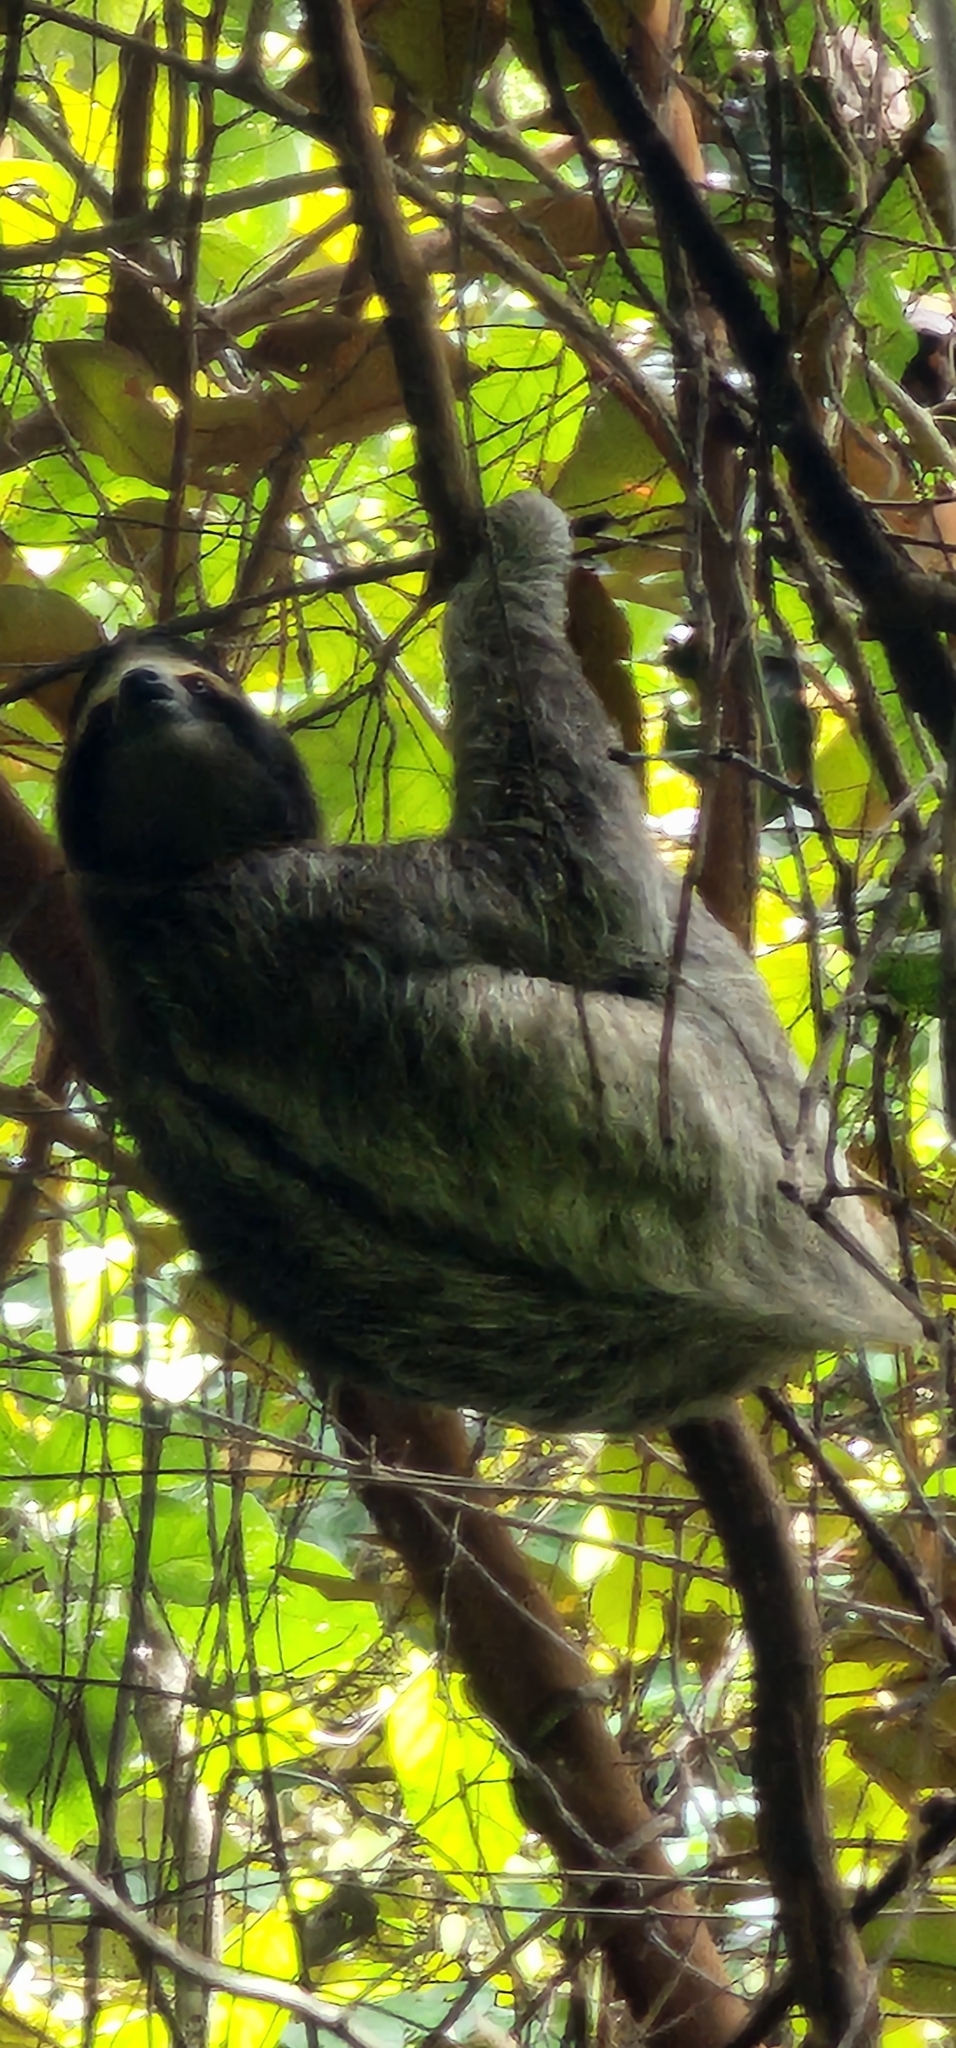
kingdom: Animalia
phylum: Chordata
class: Mammalia
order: Pilosa
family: Bradypodidae
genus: Bradypus
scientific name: Bradypus variegatus
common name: Brown-throated three-toed sloth
